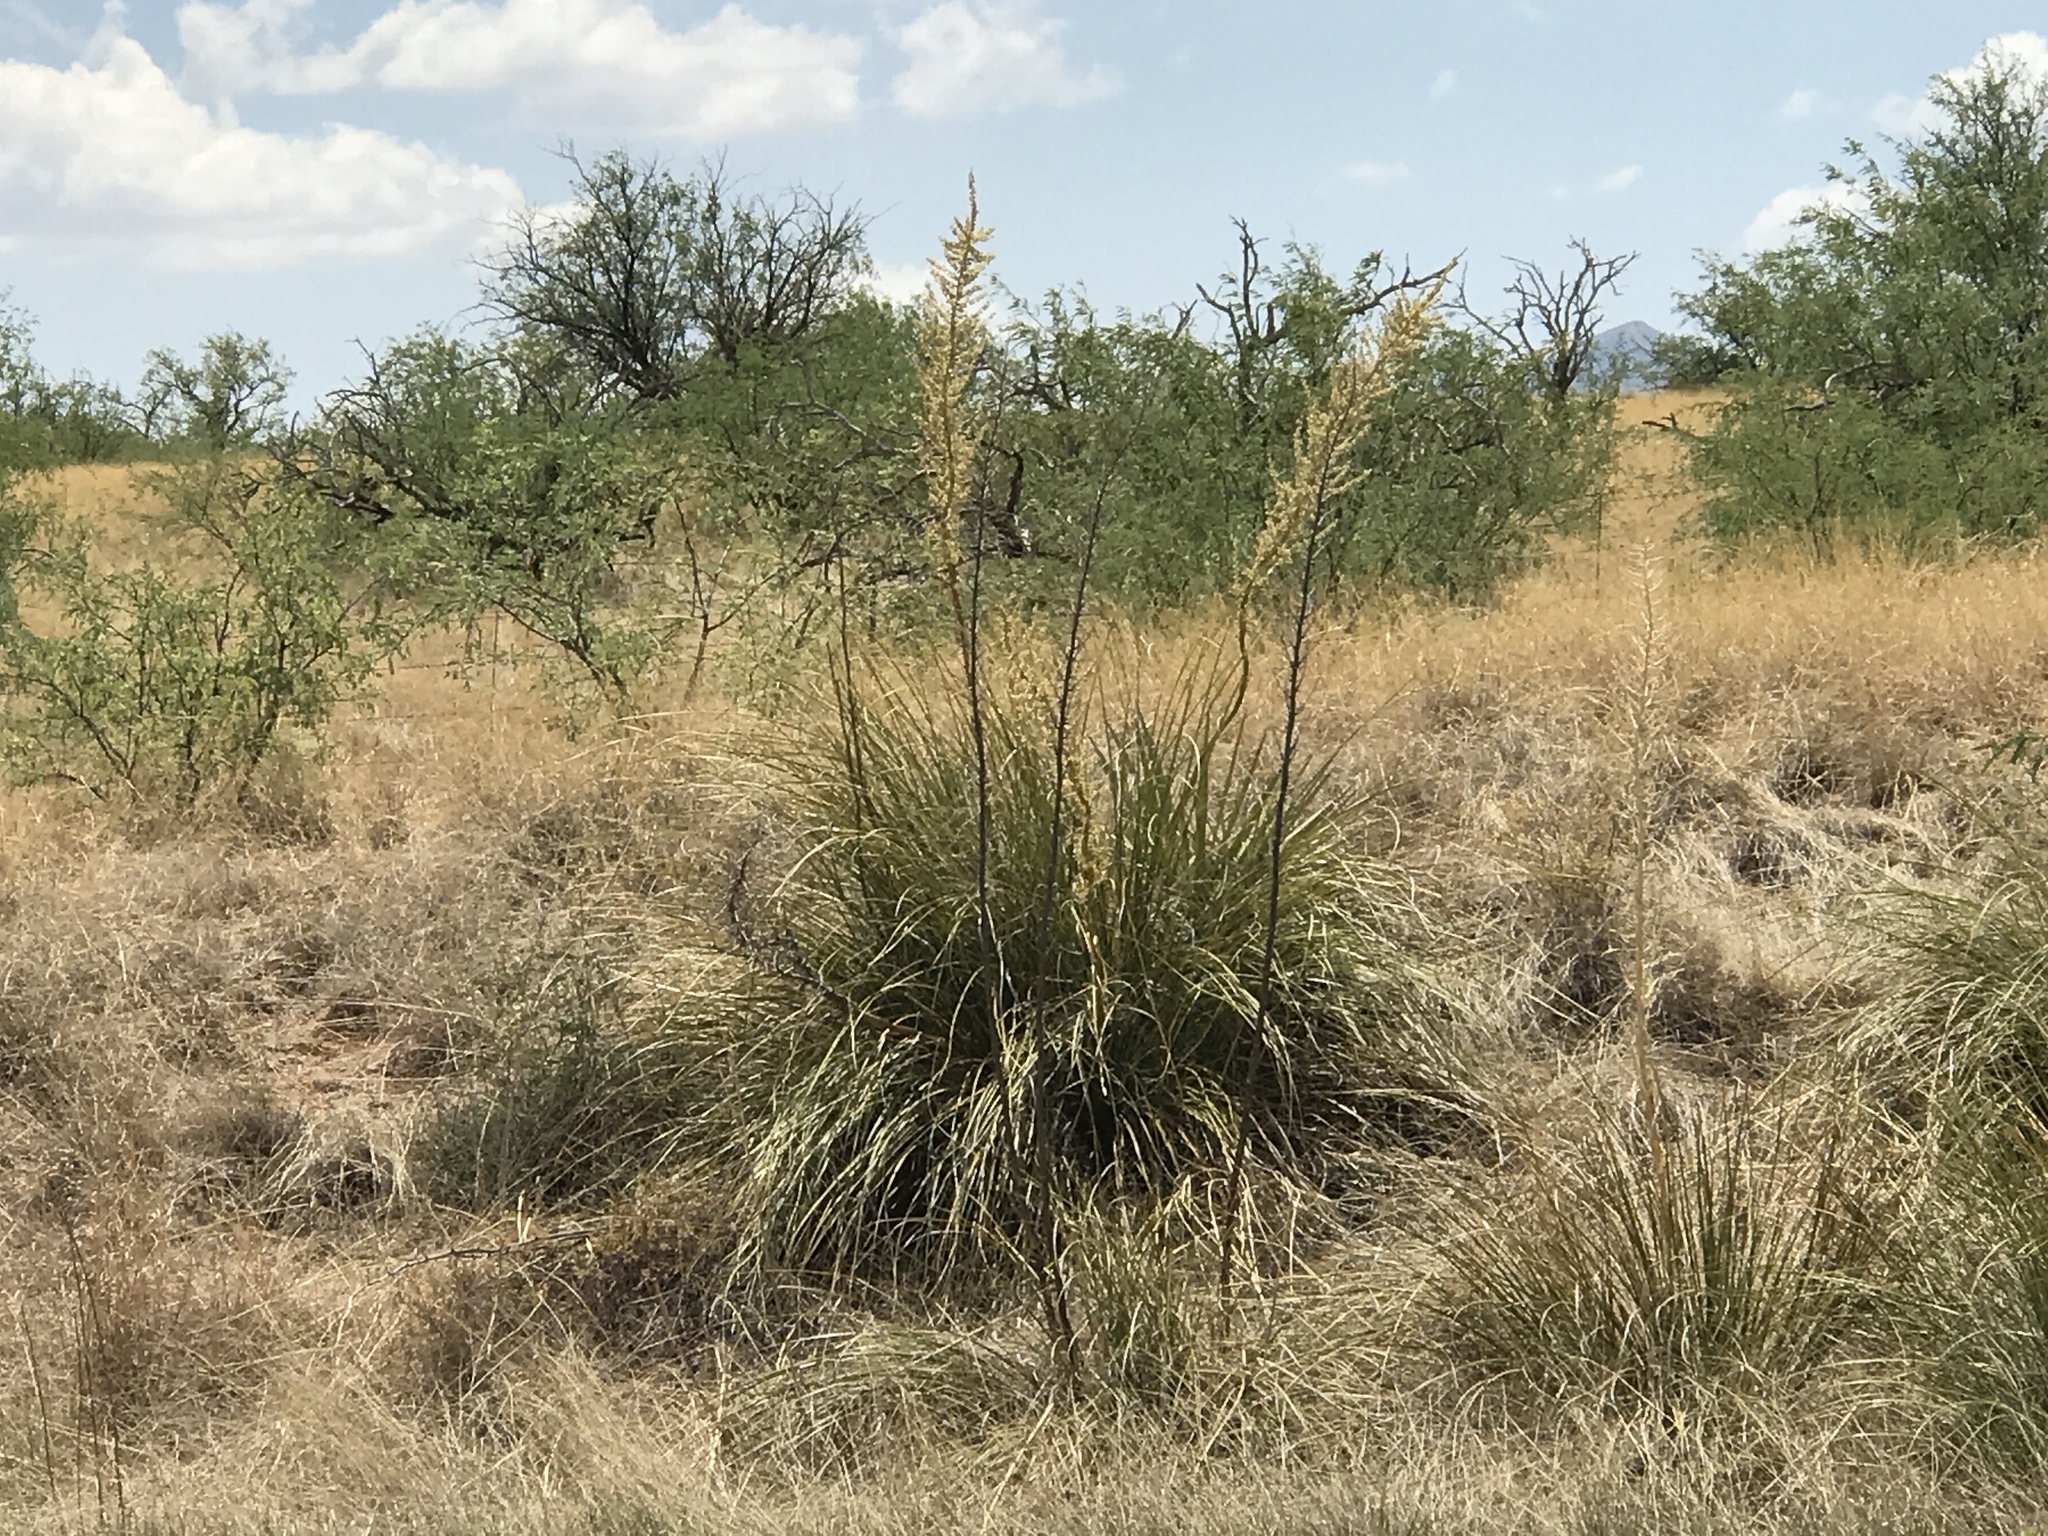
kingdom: Plantae
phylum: Tracheophyta
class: Liliopsida
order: Asparagales
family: Asparagaceae
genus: Nolina
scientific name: Nolina microcarpa
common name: Bear-grass
